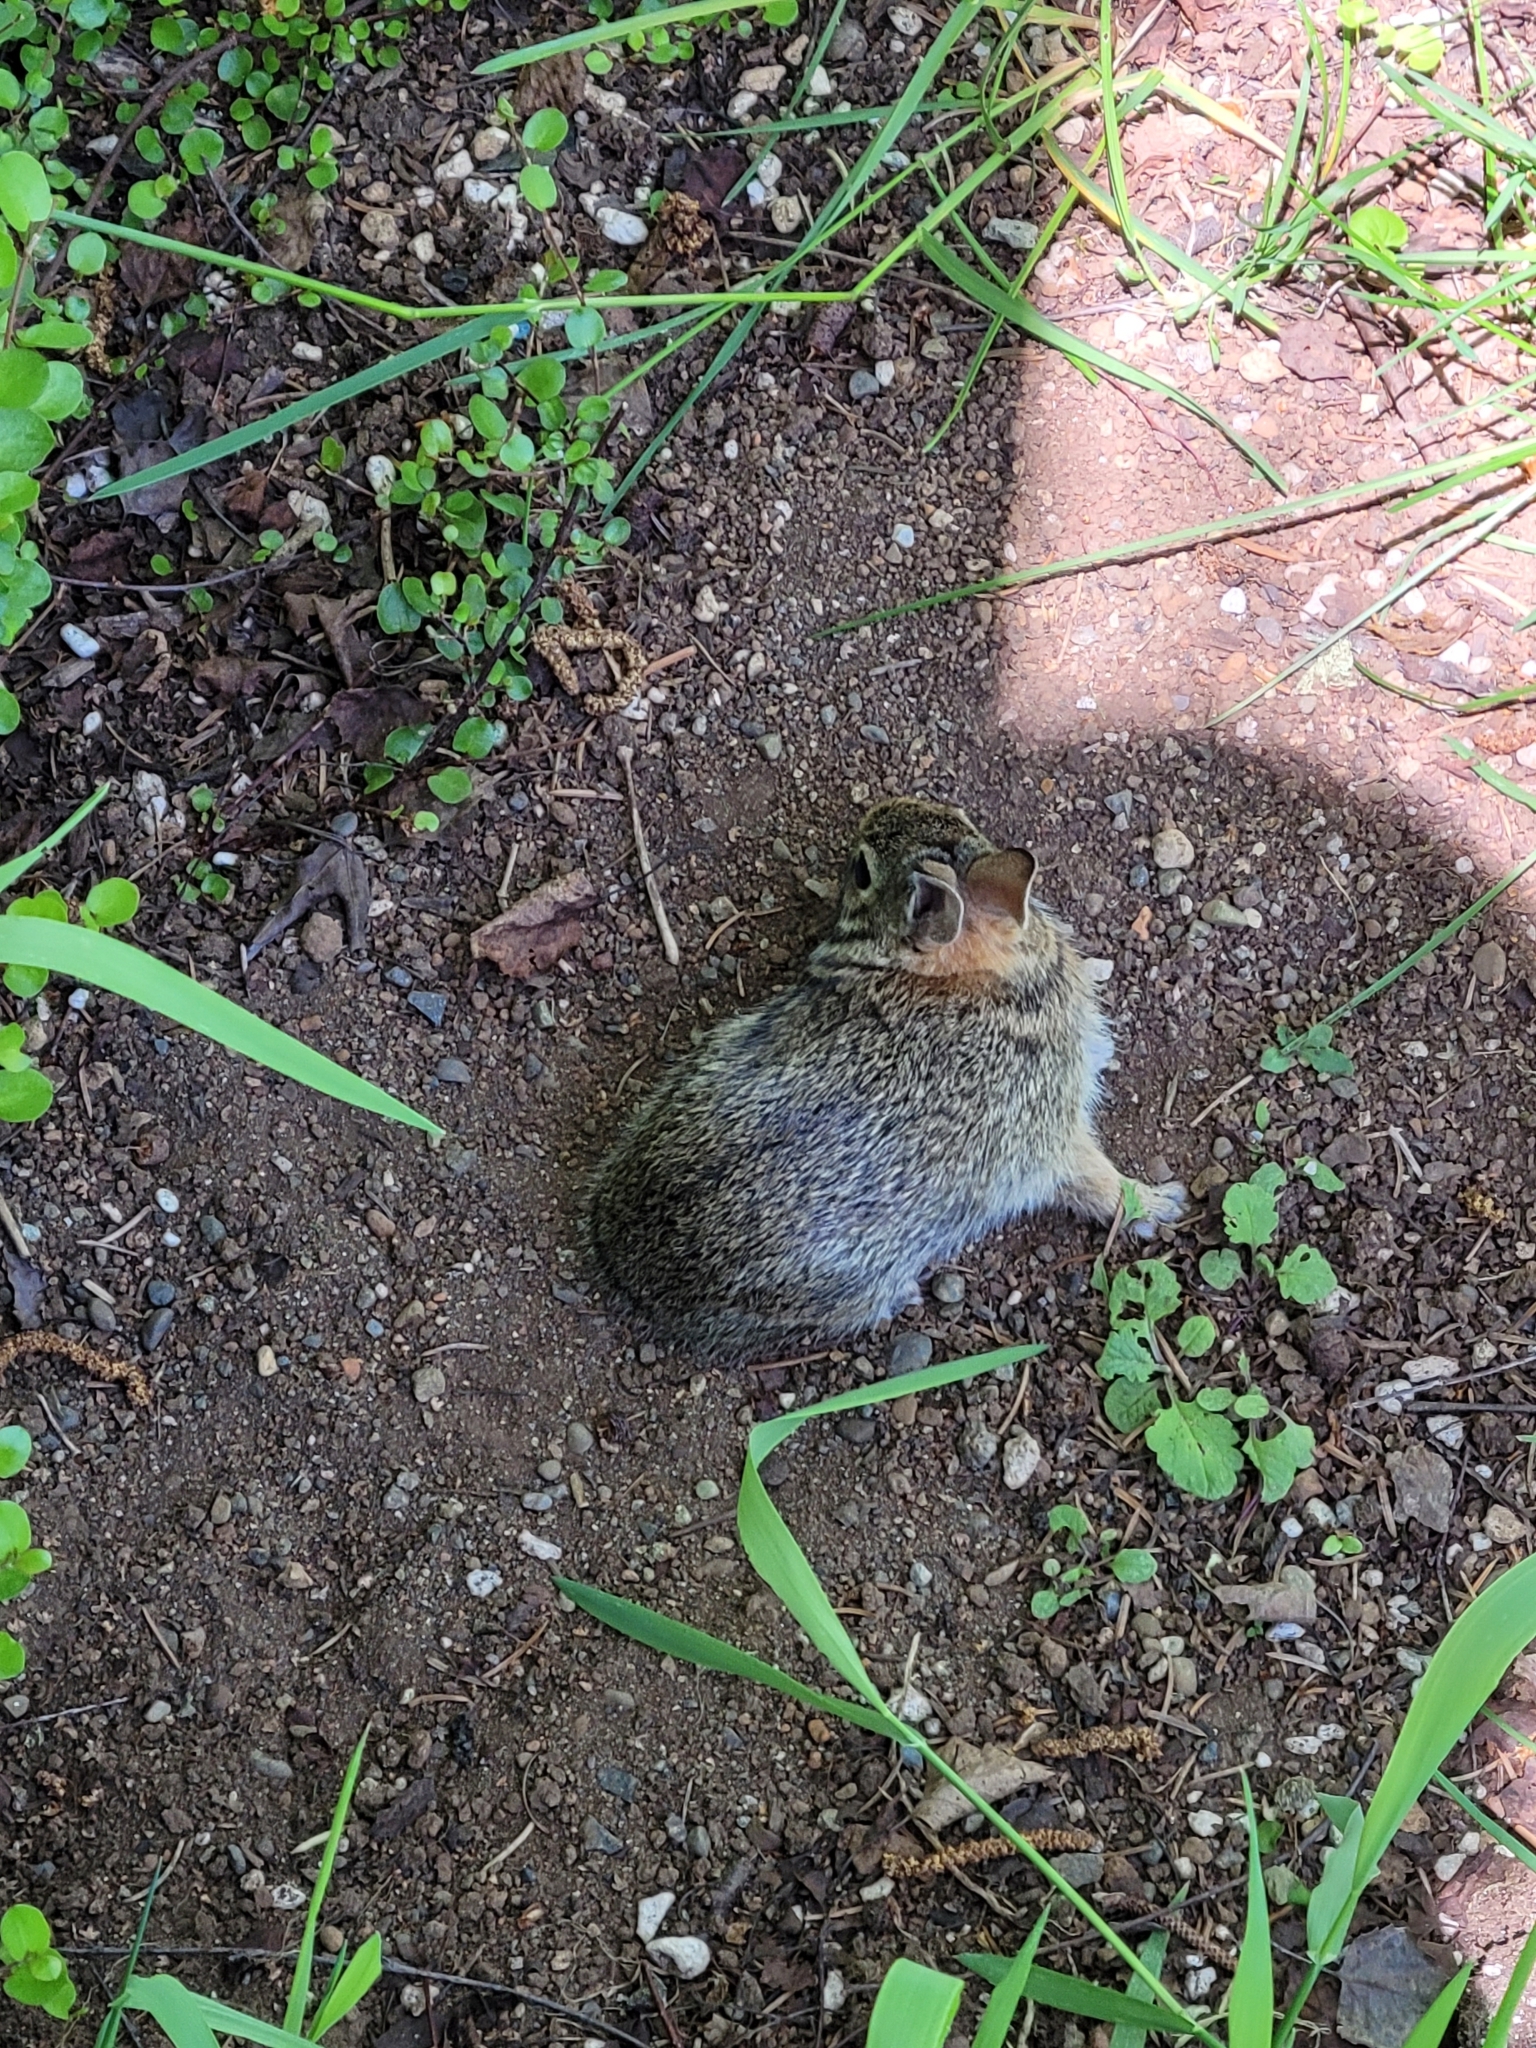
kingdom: Animalia
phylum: Chordata
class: Mammalia
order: Lagomorpha
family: Leporidae
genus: Sylvilagus
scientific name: Sylvilagus floridanus
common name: Eastern cottontail
